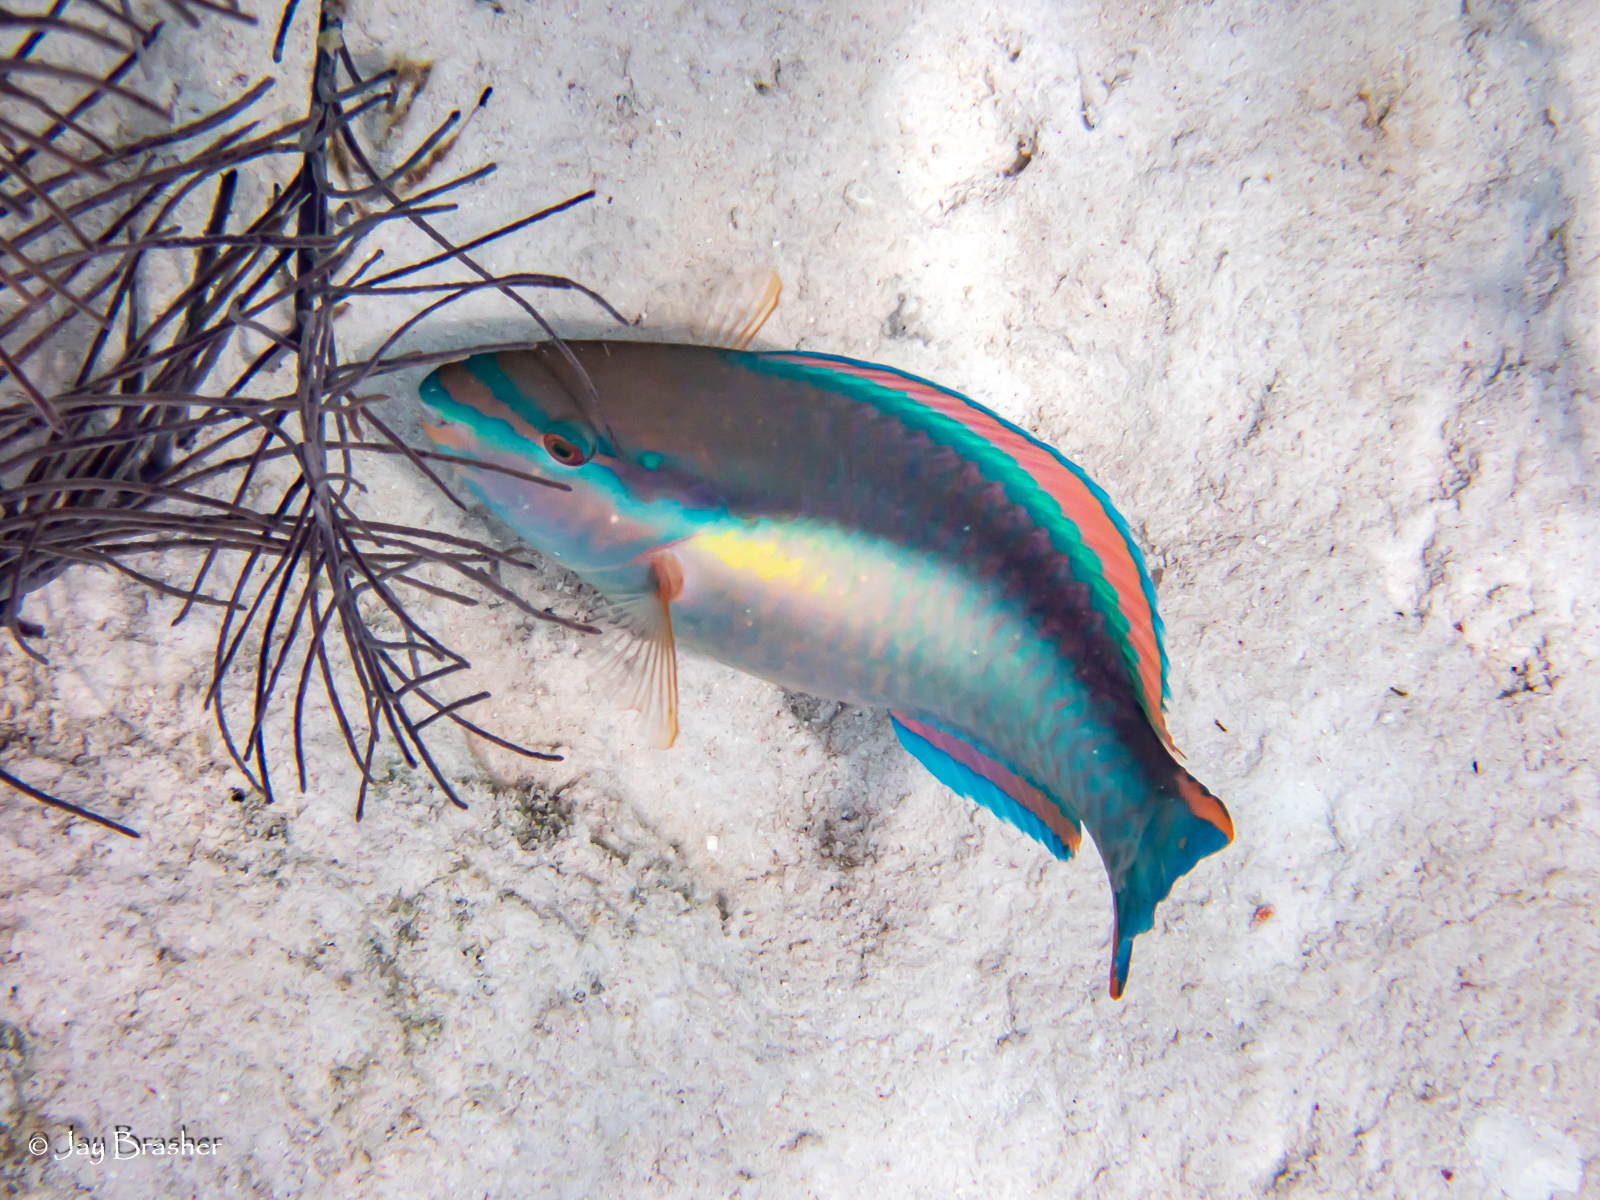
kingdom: Animalia
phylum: Chordata
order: Perciformes
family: Scaridae
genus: Scarus
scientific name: Scarus taeniopterus
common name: Princess parrotfish
